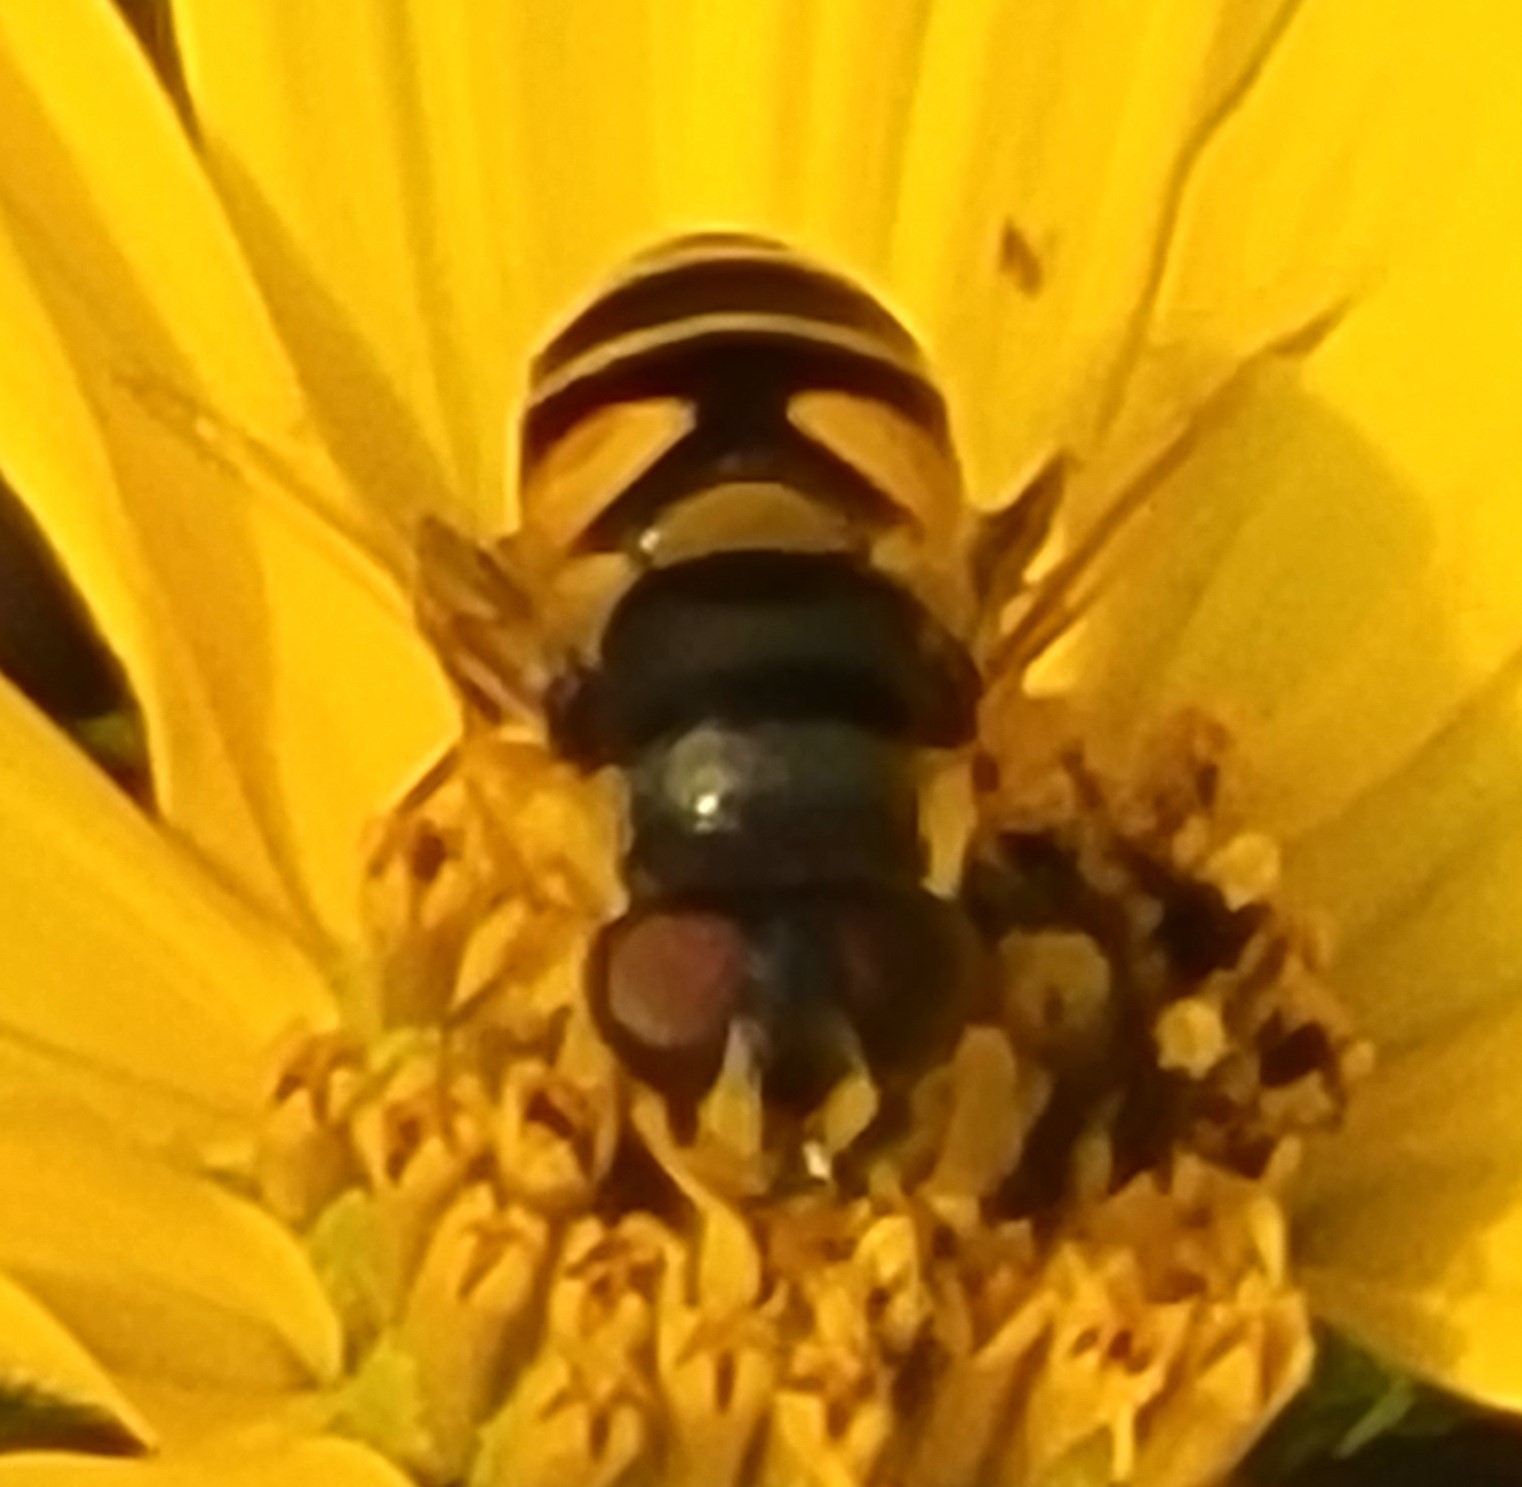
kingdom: Animalia
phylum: Arthropoda
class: Insecta
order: Diptera
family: Syrphidae
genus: Eristalis
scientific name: Eristalis transversa
